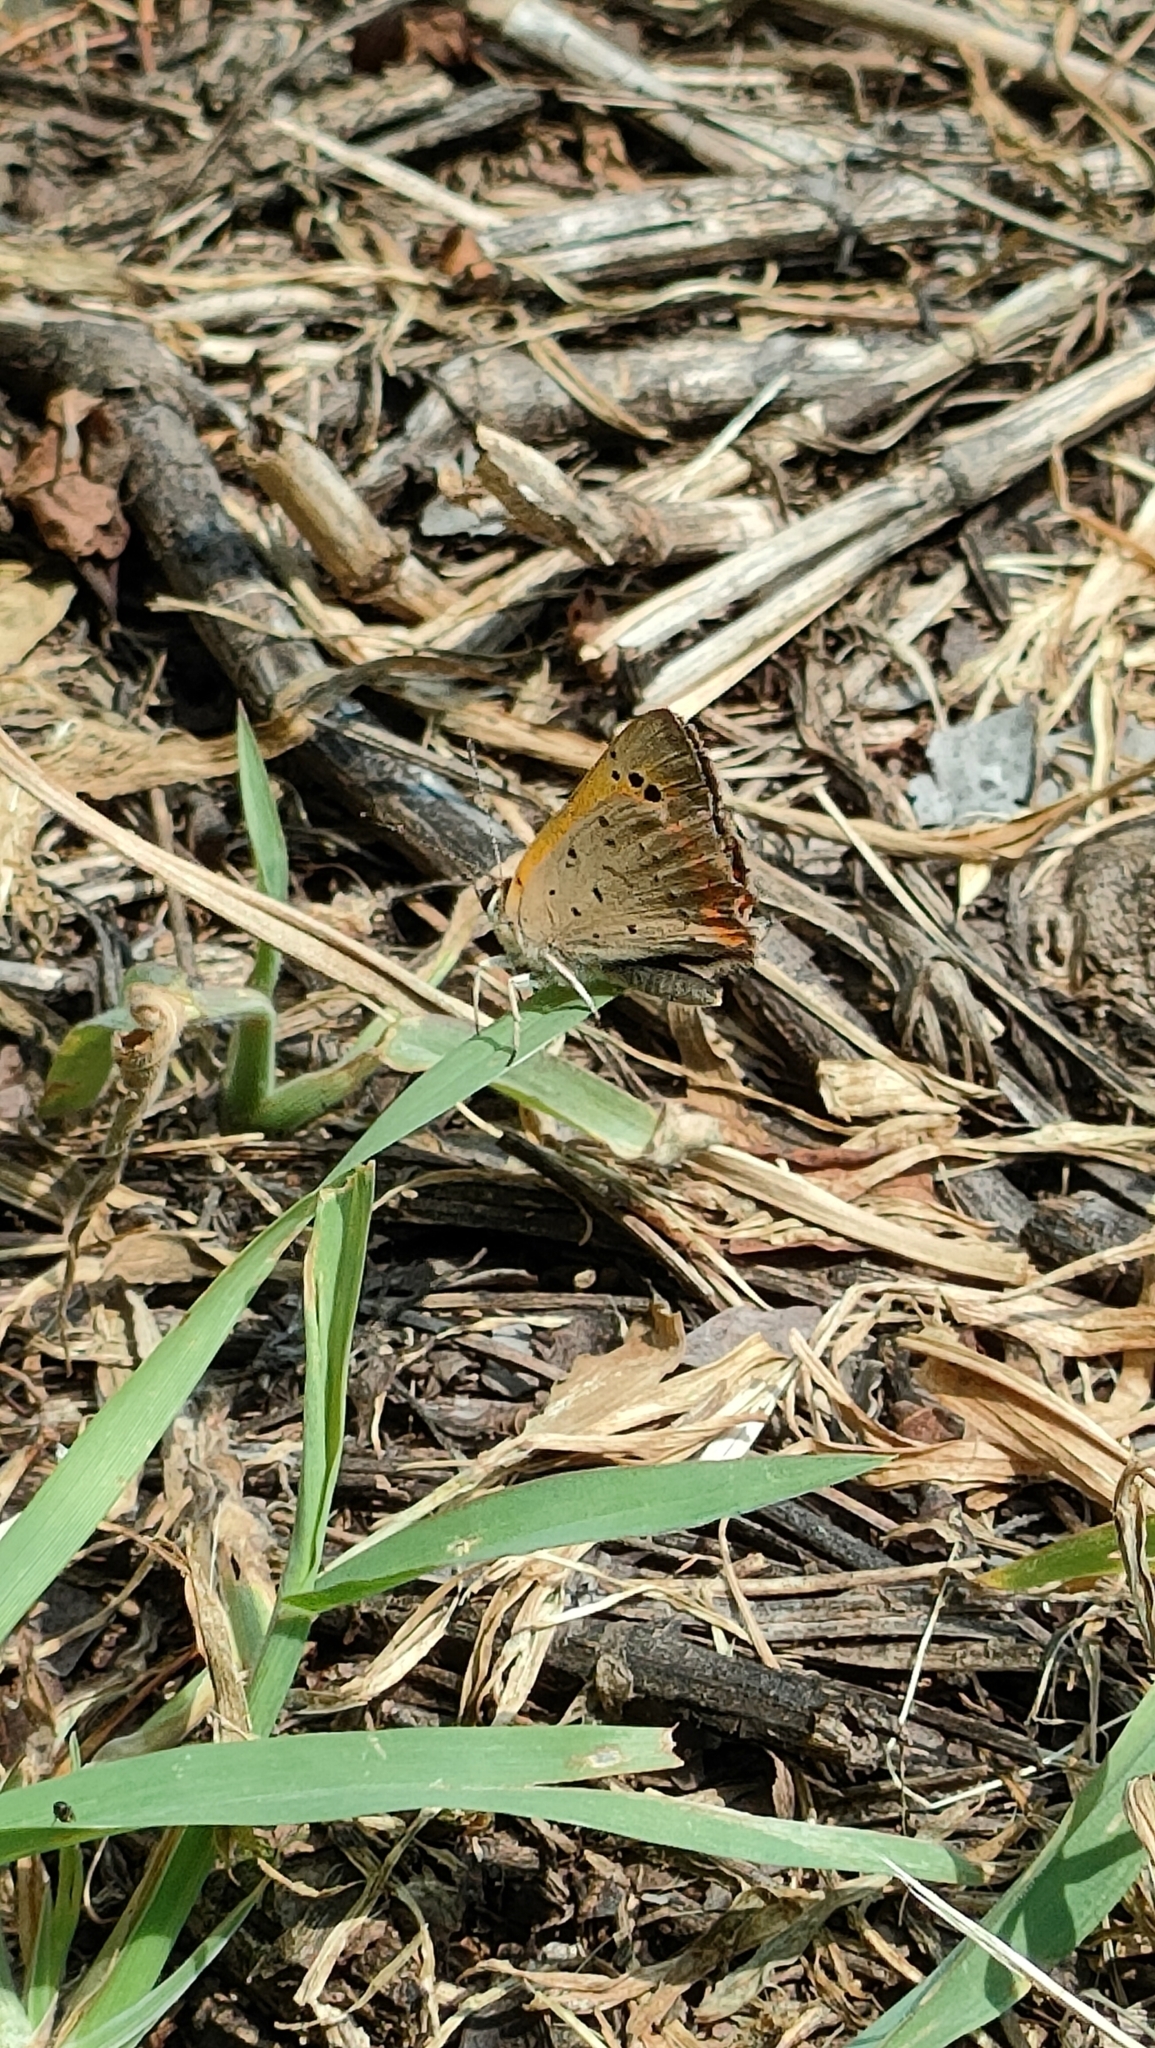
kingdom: Animalia
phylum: Arthropoda
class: Insecta
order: Lepidoptera
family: Lycaenidae
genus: Lycaena
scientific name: Lycaena phlaeas
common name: Small copper
